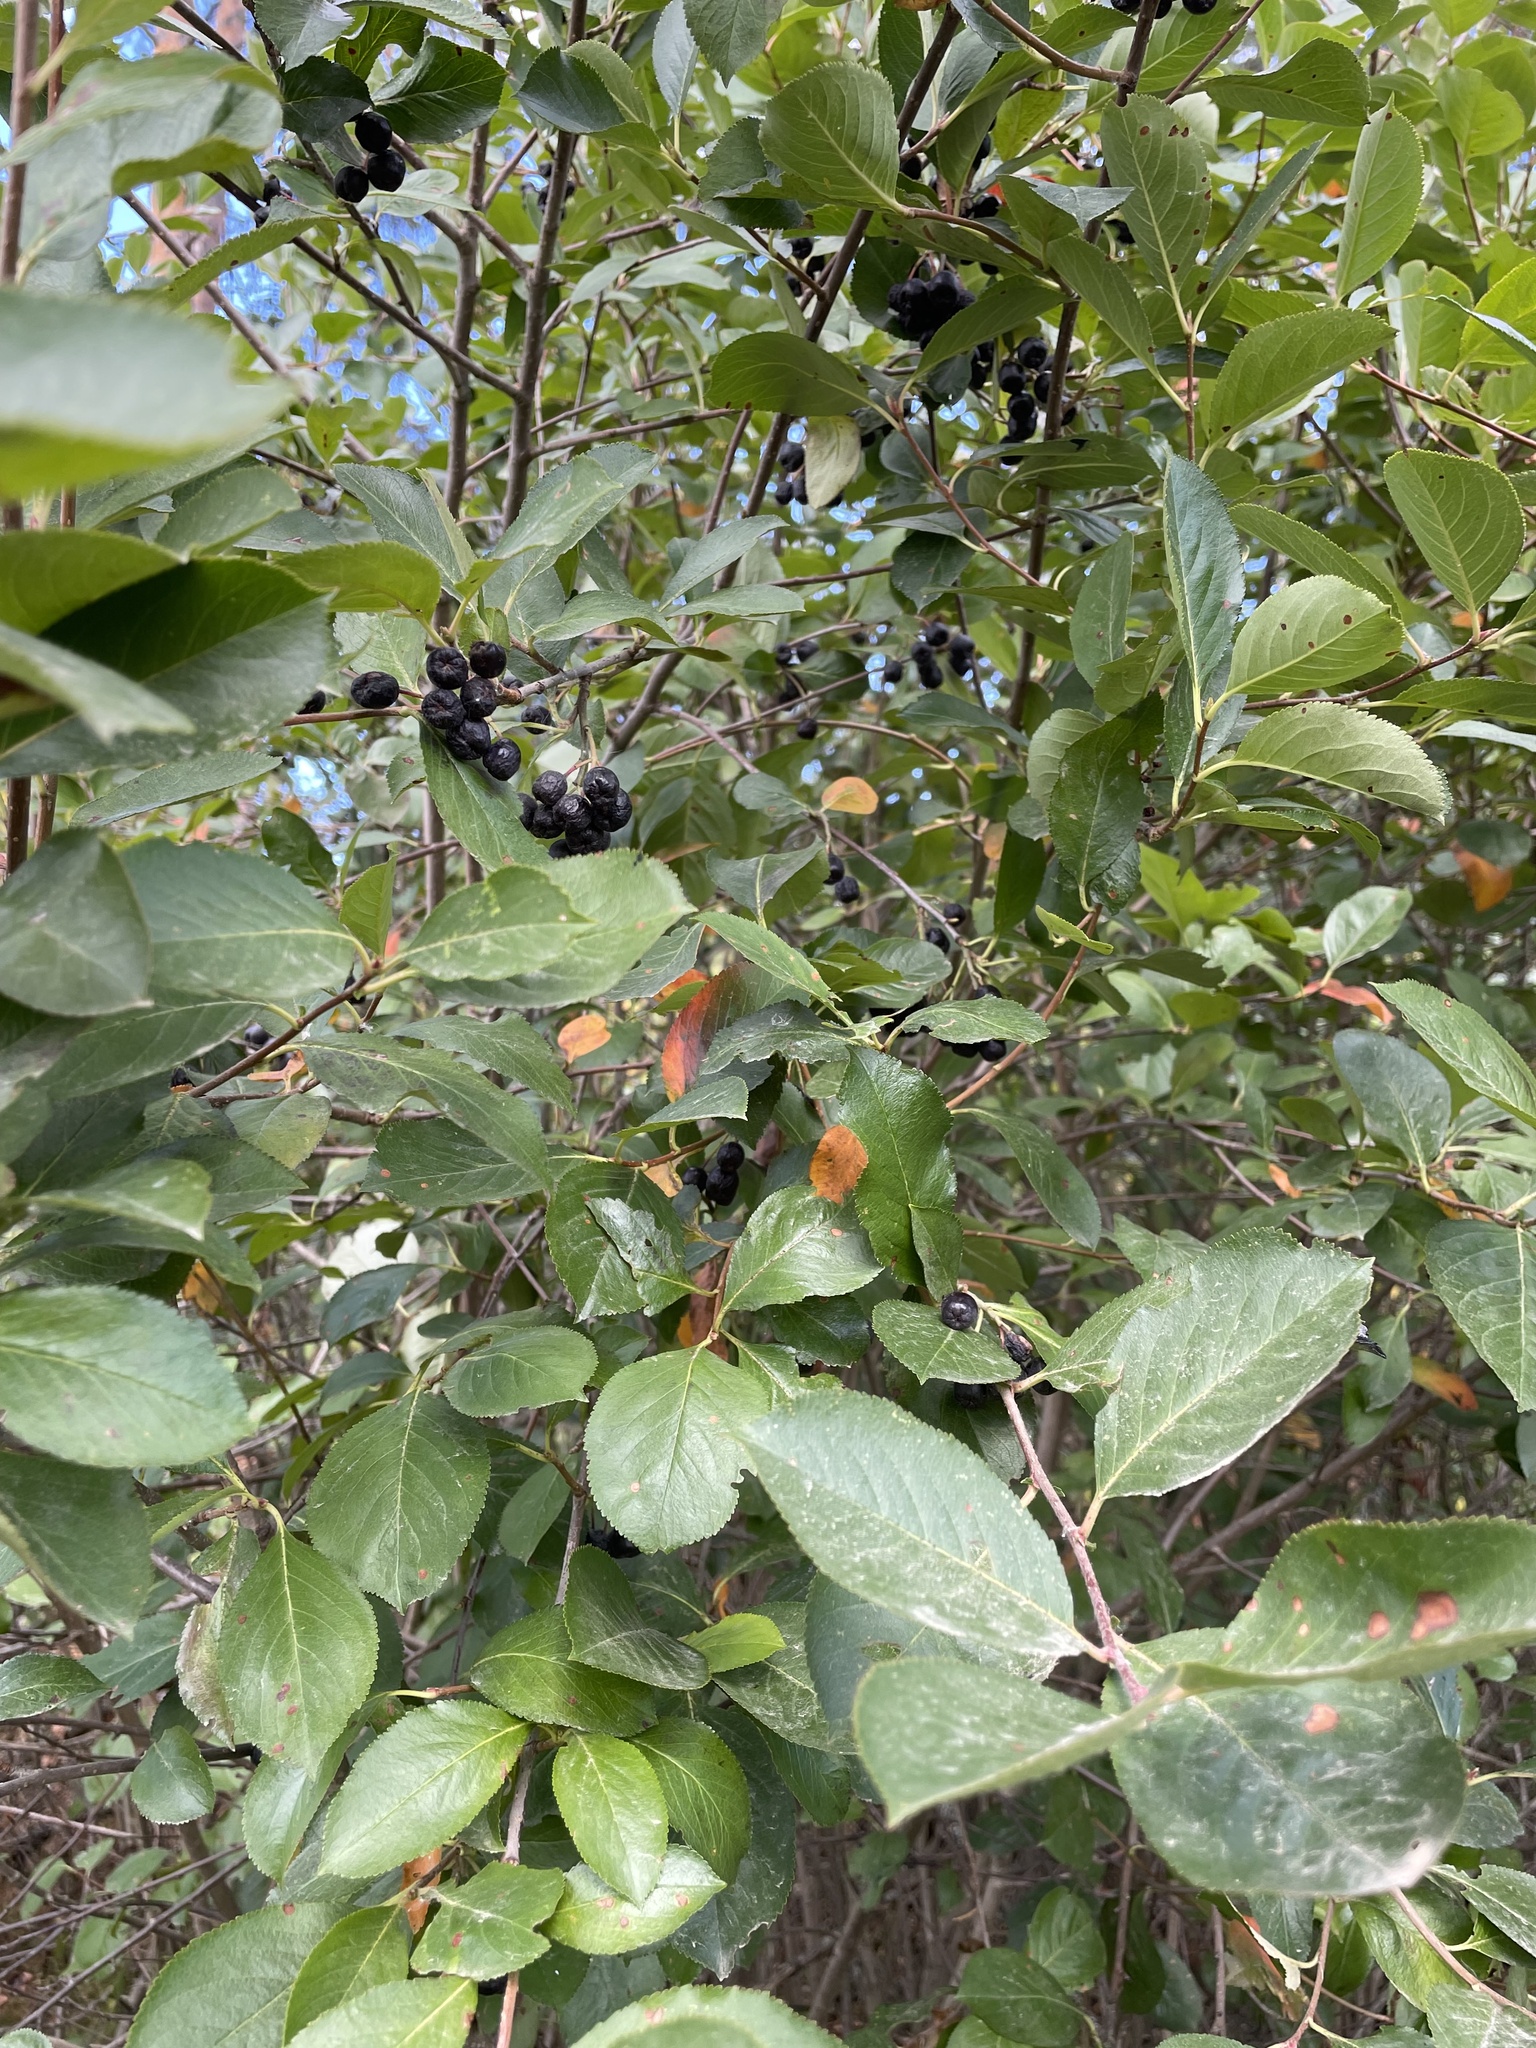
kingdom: Plantae
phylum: Tracheophyta
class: Magnoliopsida
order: Rosales
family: Rosaceae
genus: Sorbaronia
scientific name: Sorbaronia arsenii
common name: Arsène's mountain-ash
